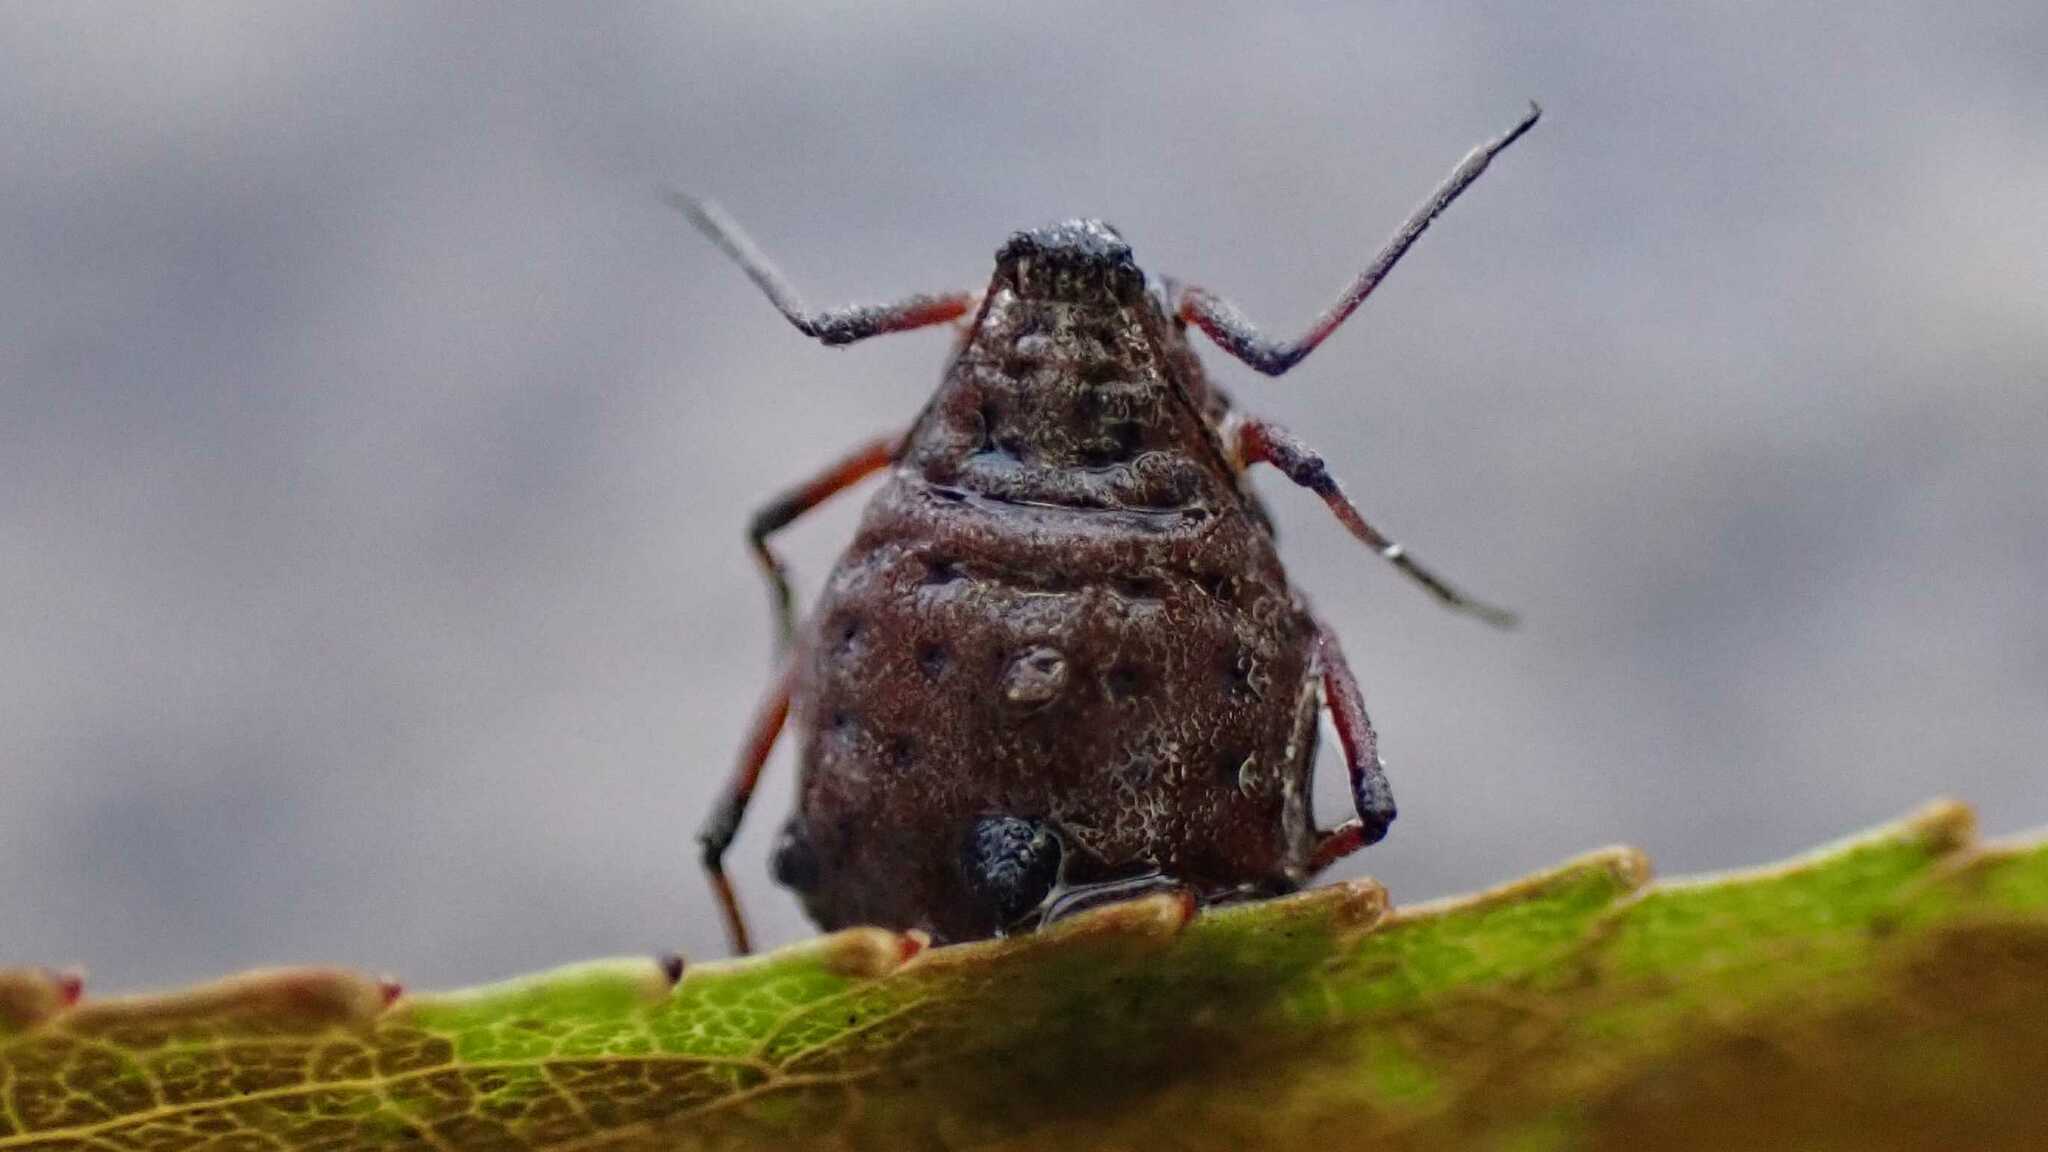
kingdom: Animalia
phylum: Arthropoda
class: Insecta
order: Hemiptera
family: Aphididae
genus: Tuberolachnus
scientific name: Tuberolachnus salignus
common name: Giant willow aphid
